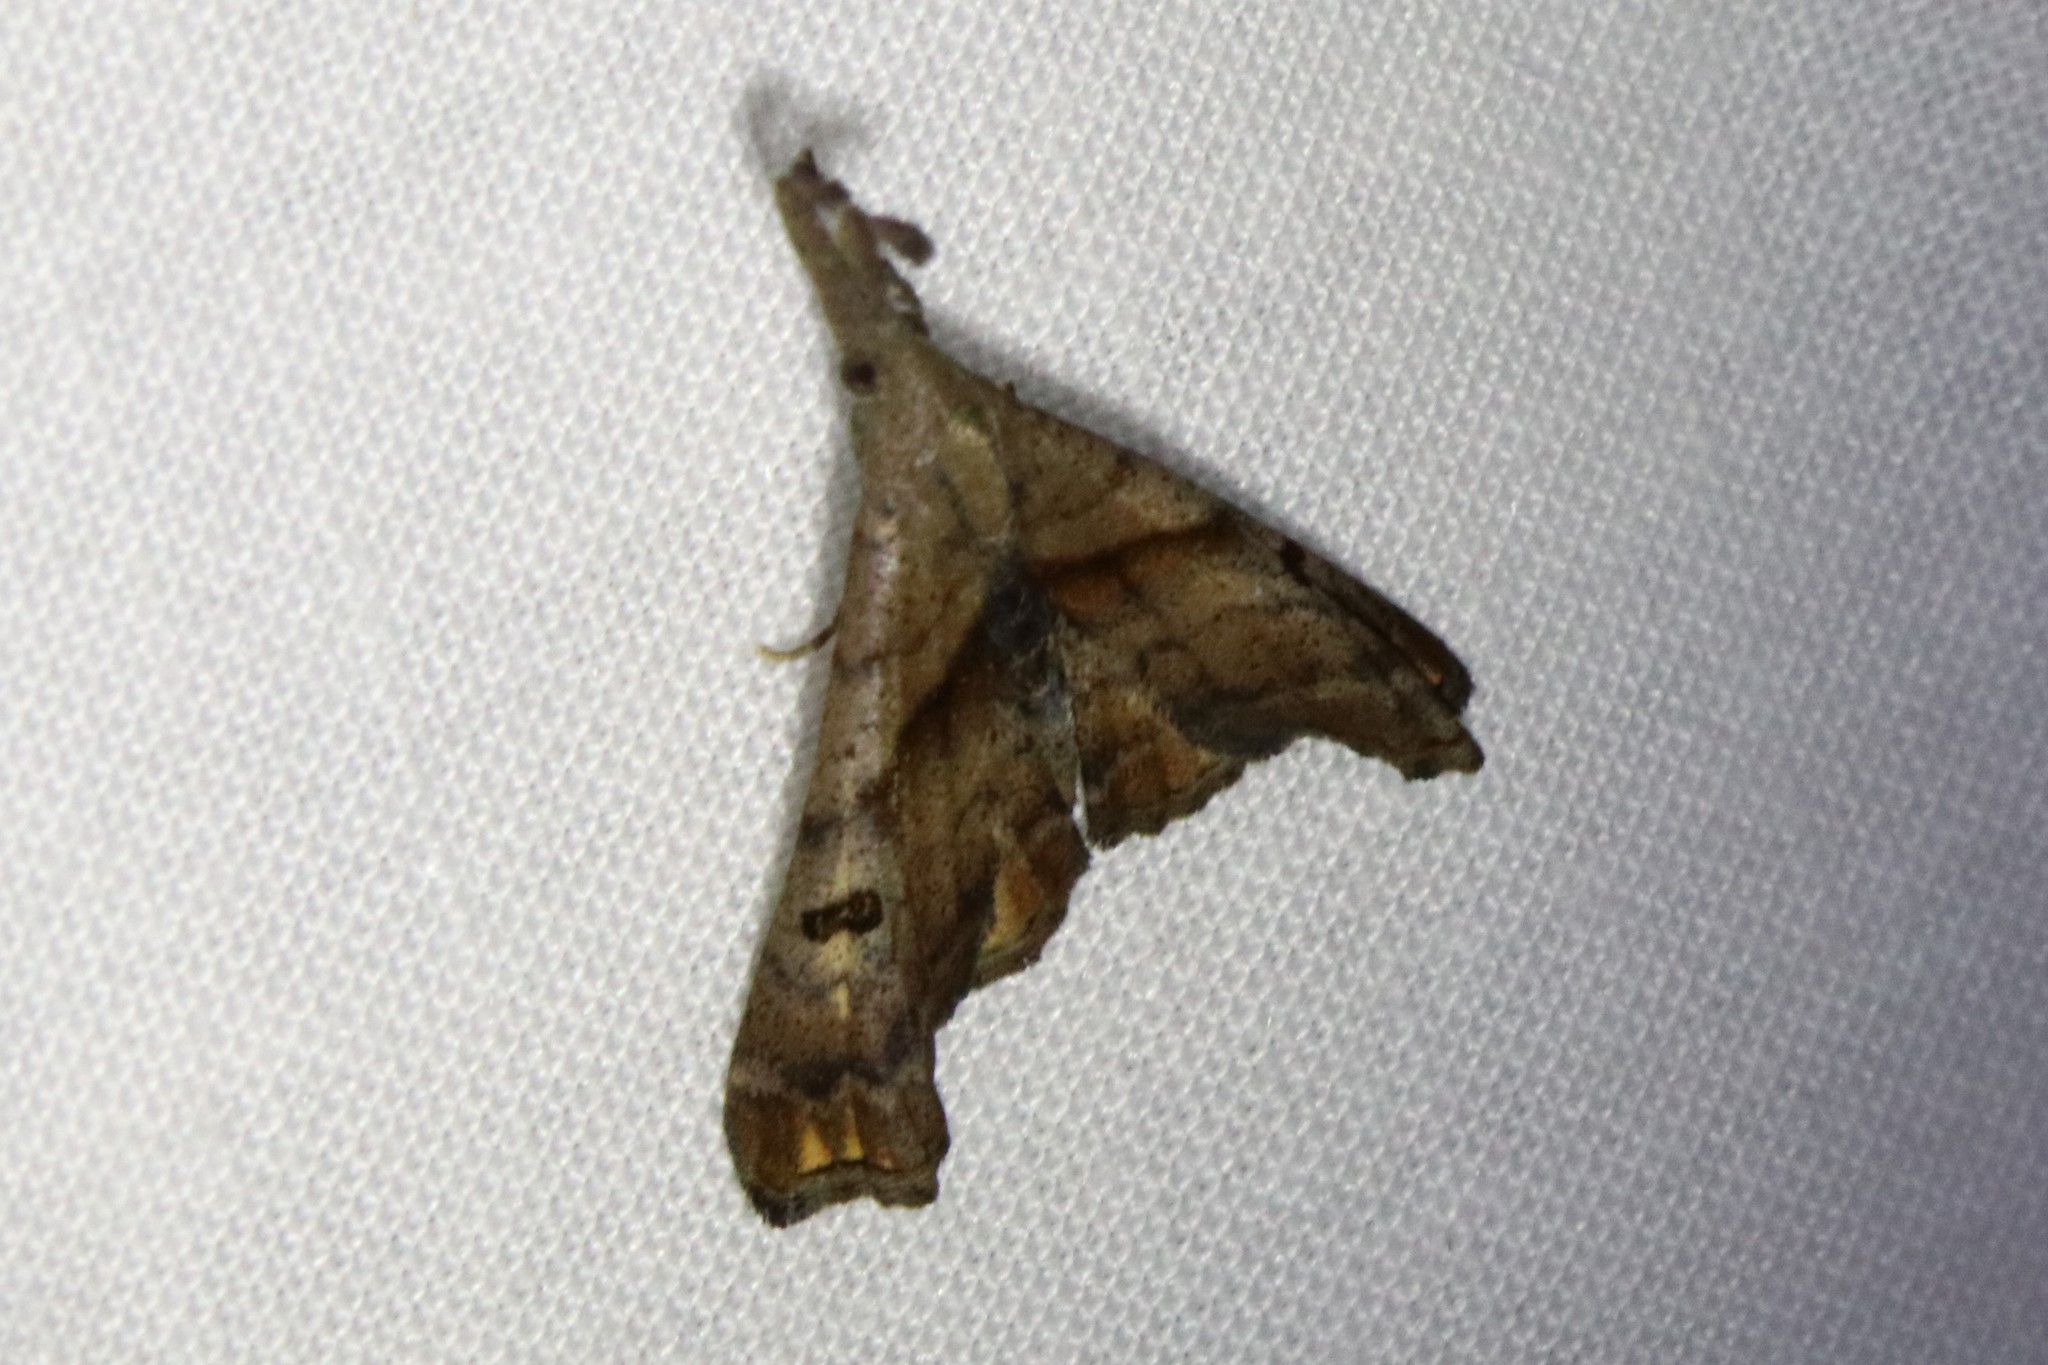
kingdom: Animalia
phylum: Arthropoda
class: Insecta
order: Lepidoptera
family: Erebidae
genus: Palthis
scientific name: Palthis angulalis
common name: Dark-spotted palthis moth
